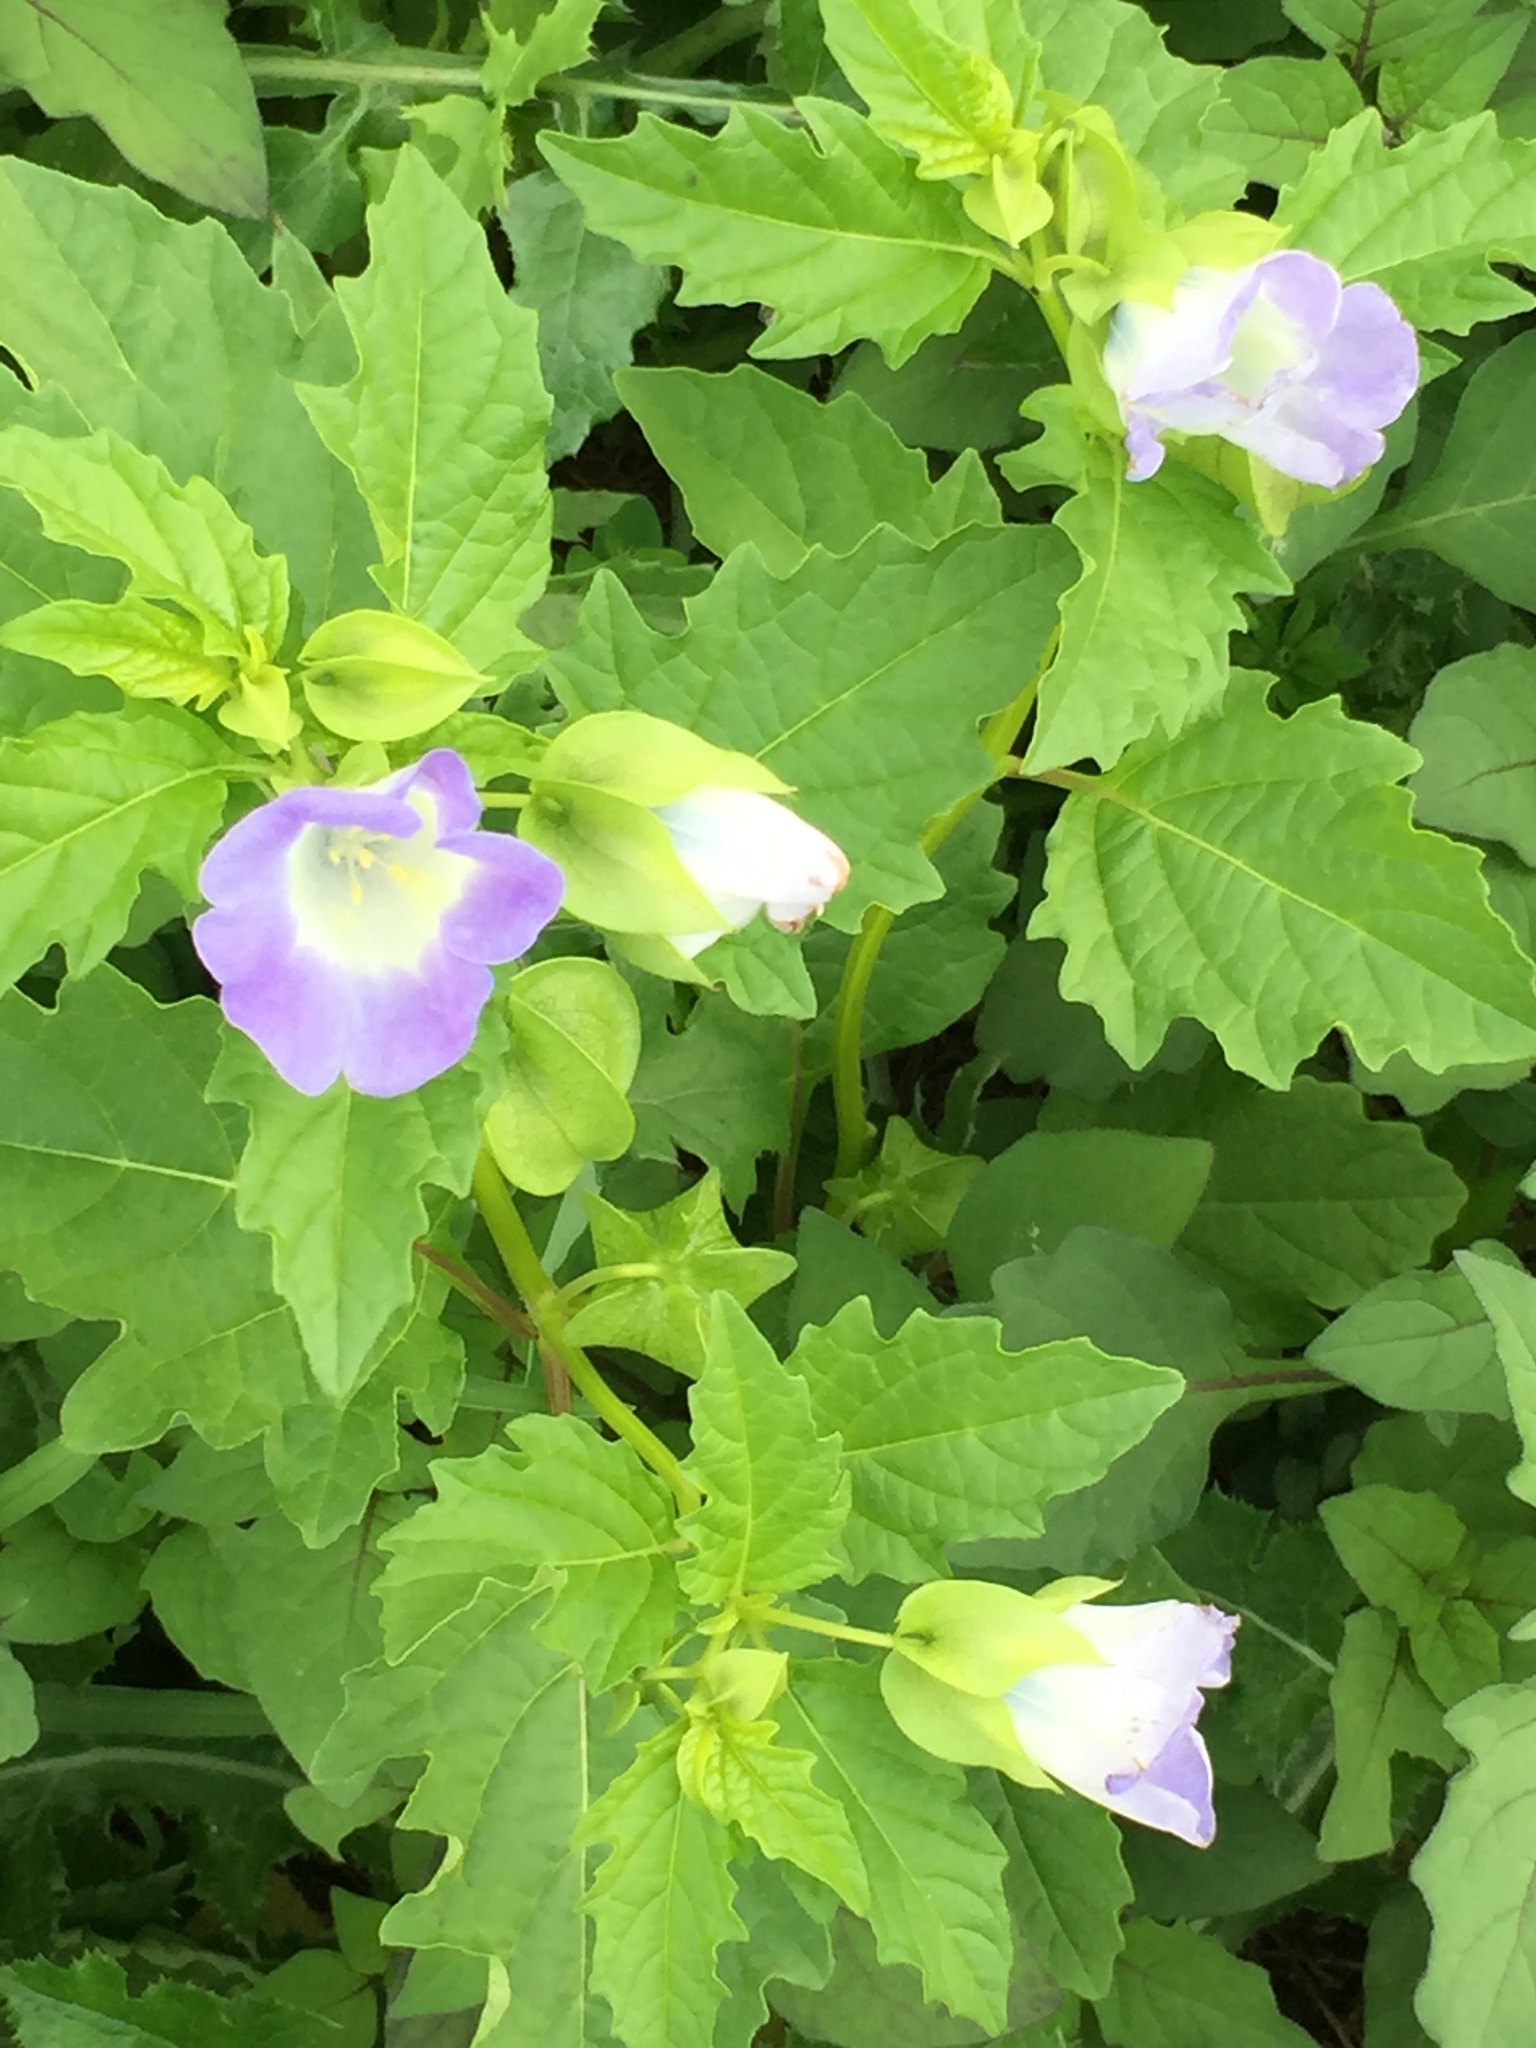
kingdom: Plantae
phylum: Tracheophyta
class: Magnoliopsida
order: Solanales
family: Solanaceae
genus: Nicandra
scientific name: Nicandra physalodes
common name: Apple-of-peru
